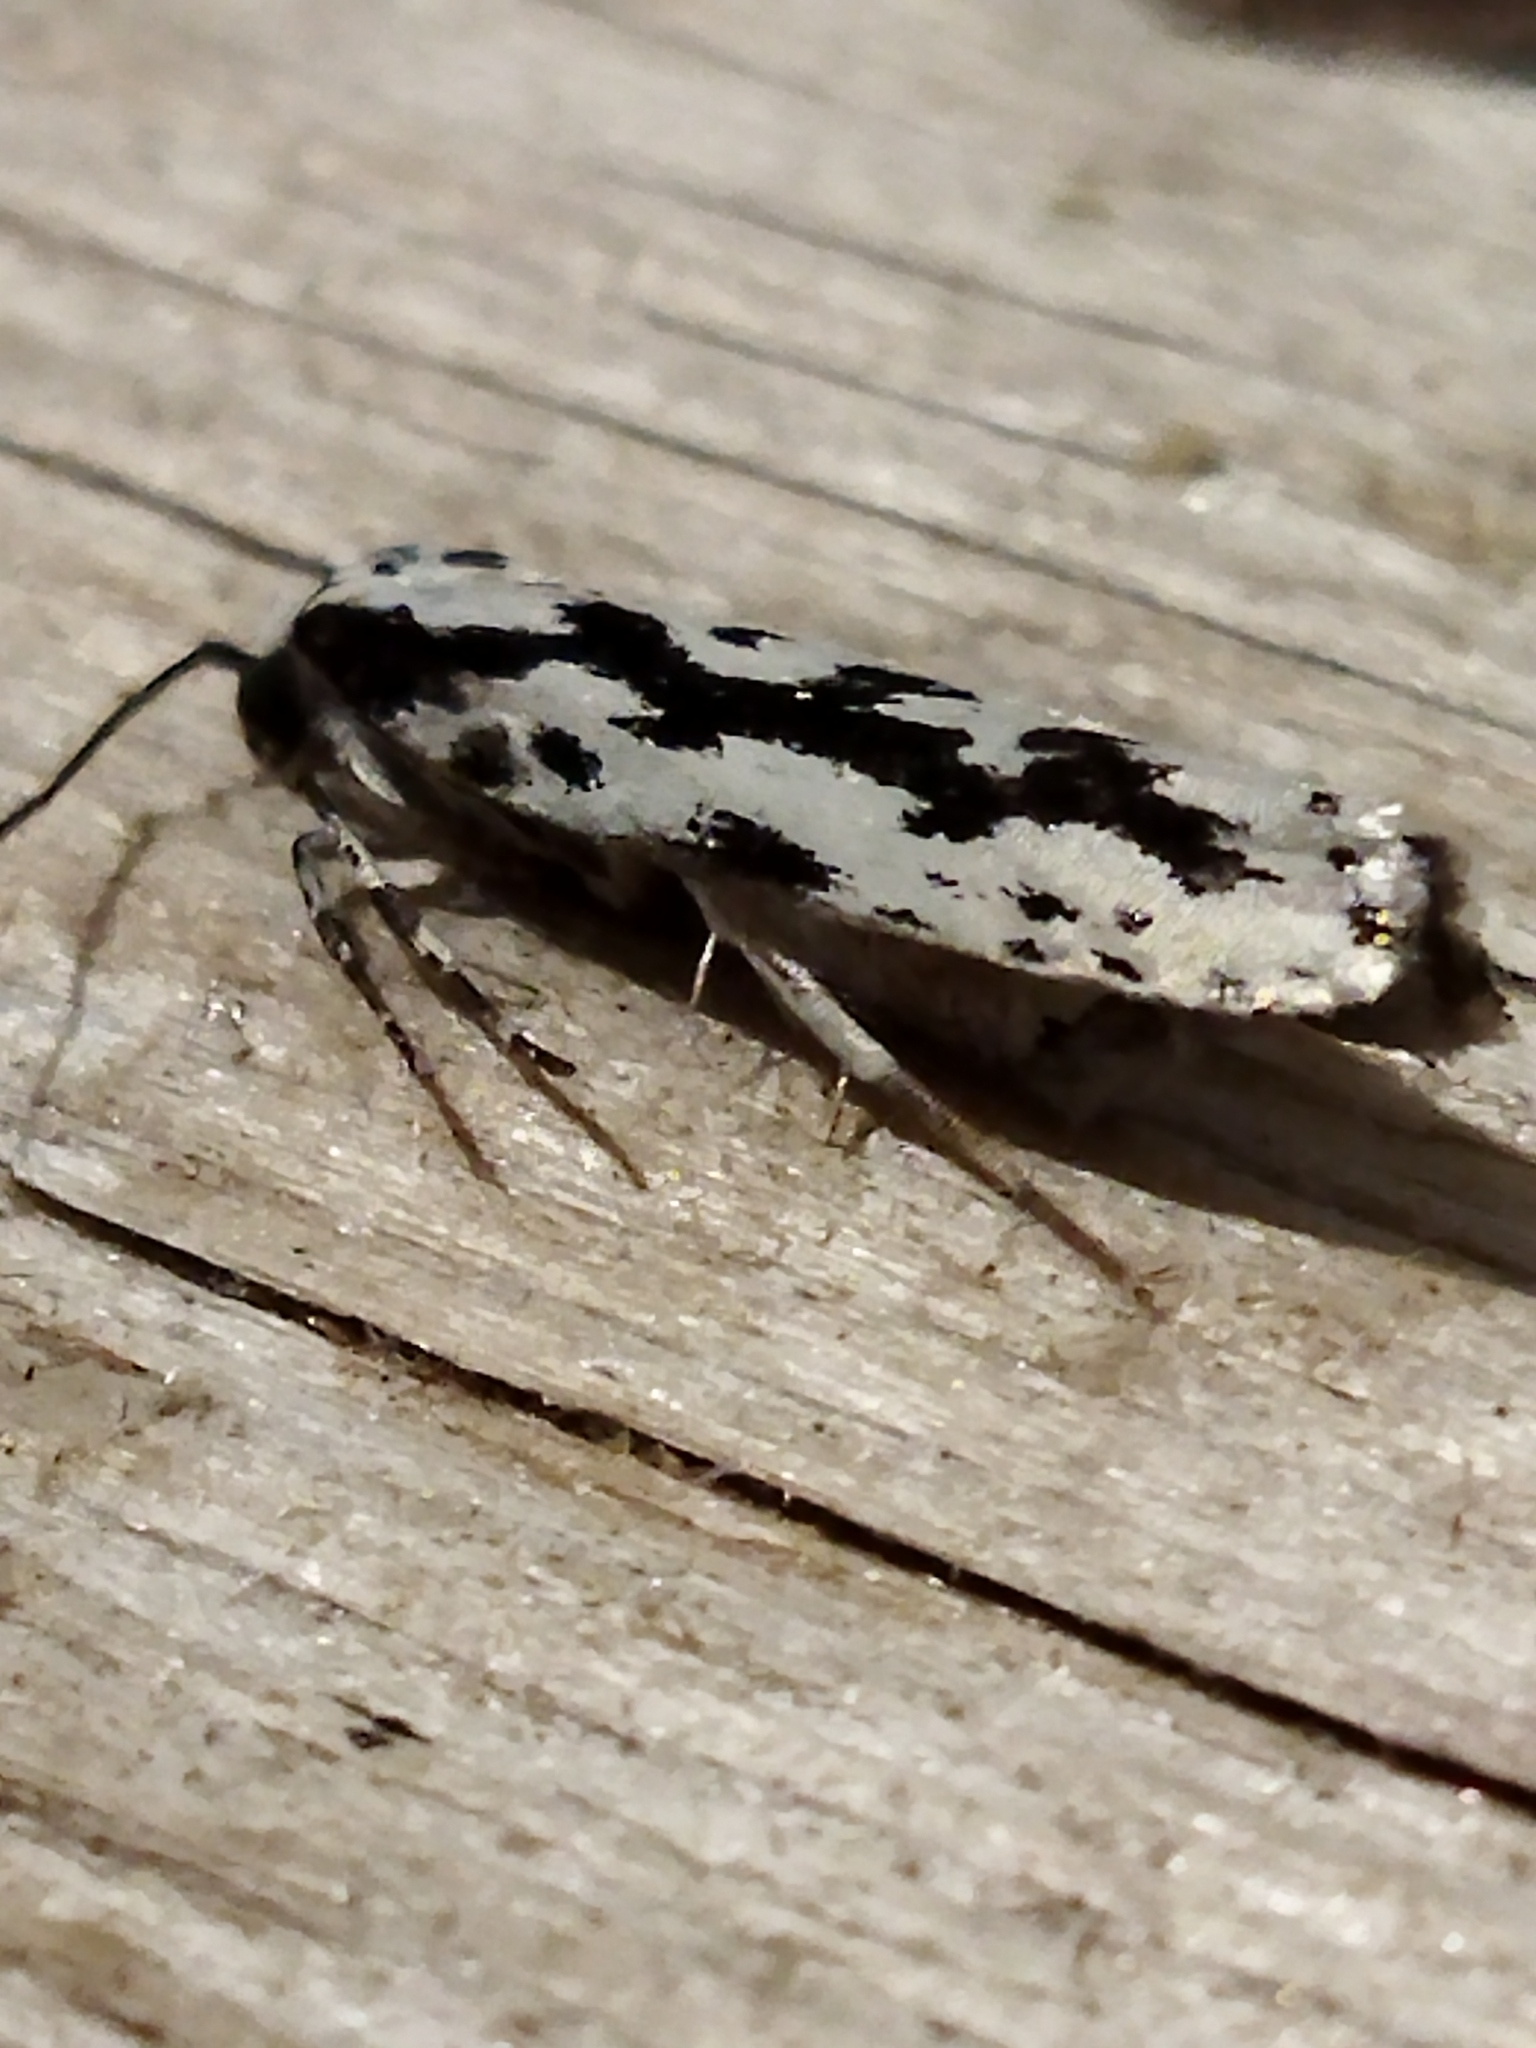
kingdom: Animalia
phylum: Arthropoda
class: Insecta
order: Lepidoptera
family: Ethmiidae
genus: Ethmia
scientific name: Ethmia pusiella
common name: Striped ermel
